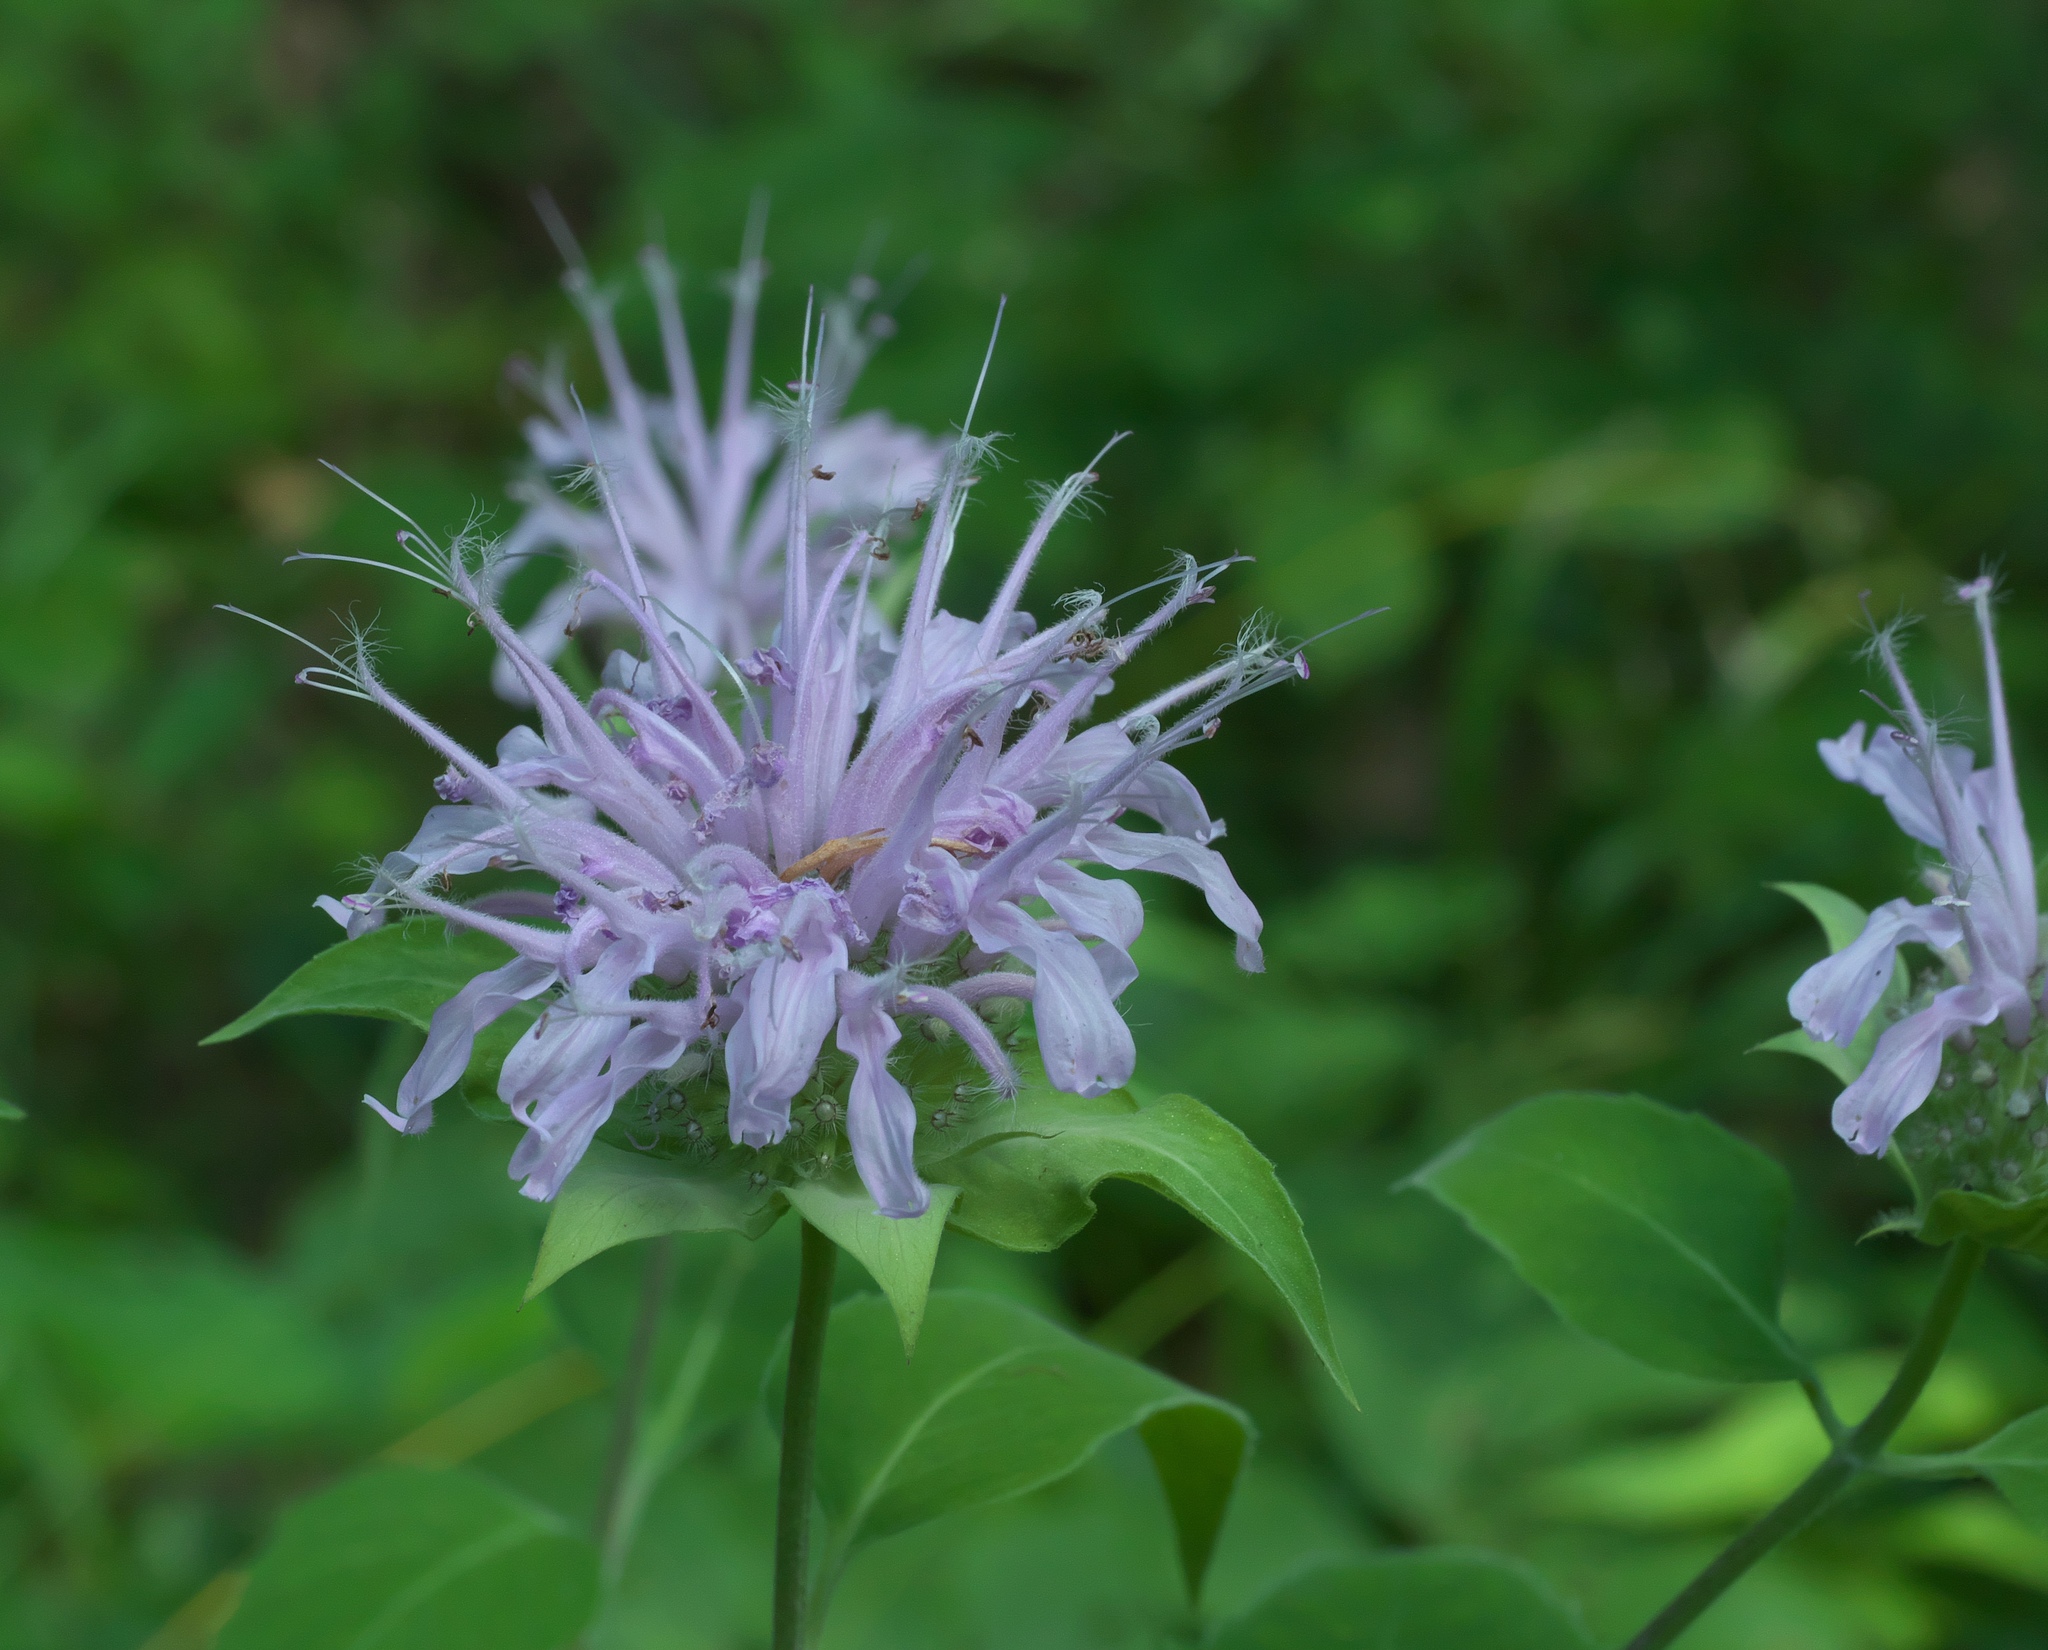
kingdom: Plantae
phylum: Tracheophyta
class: Magnoliopsida
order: Lamiales
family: Lamiaceae
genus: Monarda
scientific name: Monarda fistulosa
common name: Purple beebalm
